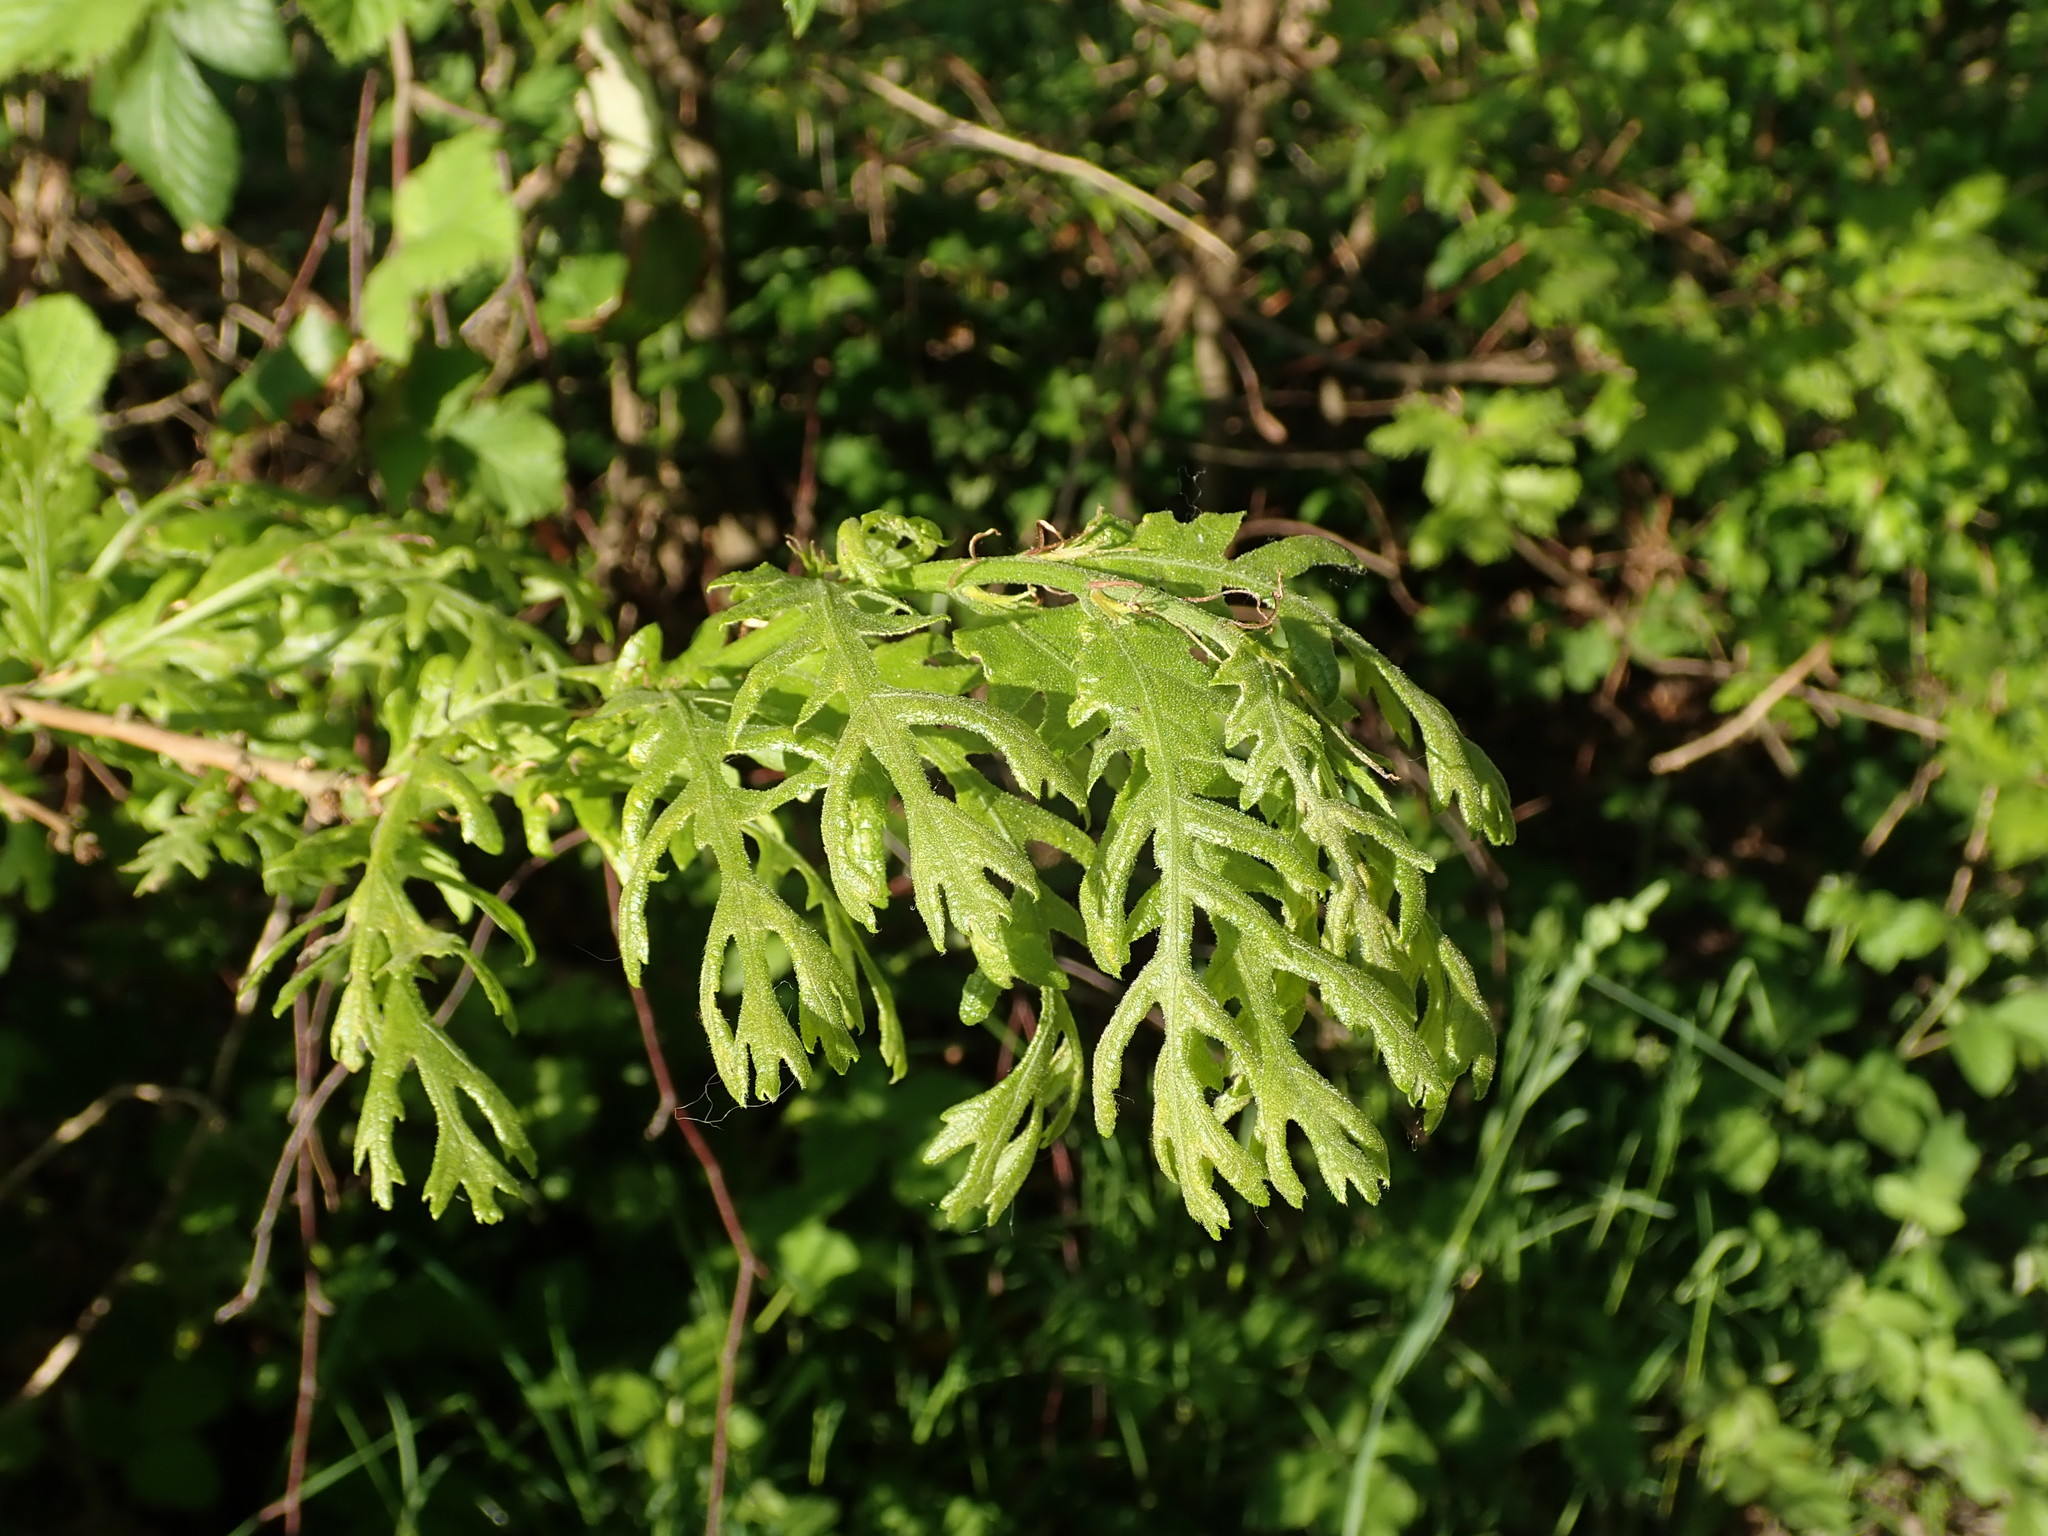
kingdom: Plantae
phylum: Tracheophyta
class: Magnoliopsida
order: Fagales
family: Fagaceae
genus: Quercus
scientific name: Quercus cerris
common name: Turkey oak
